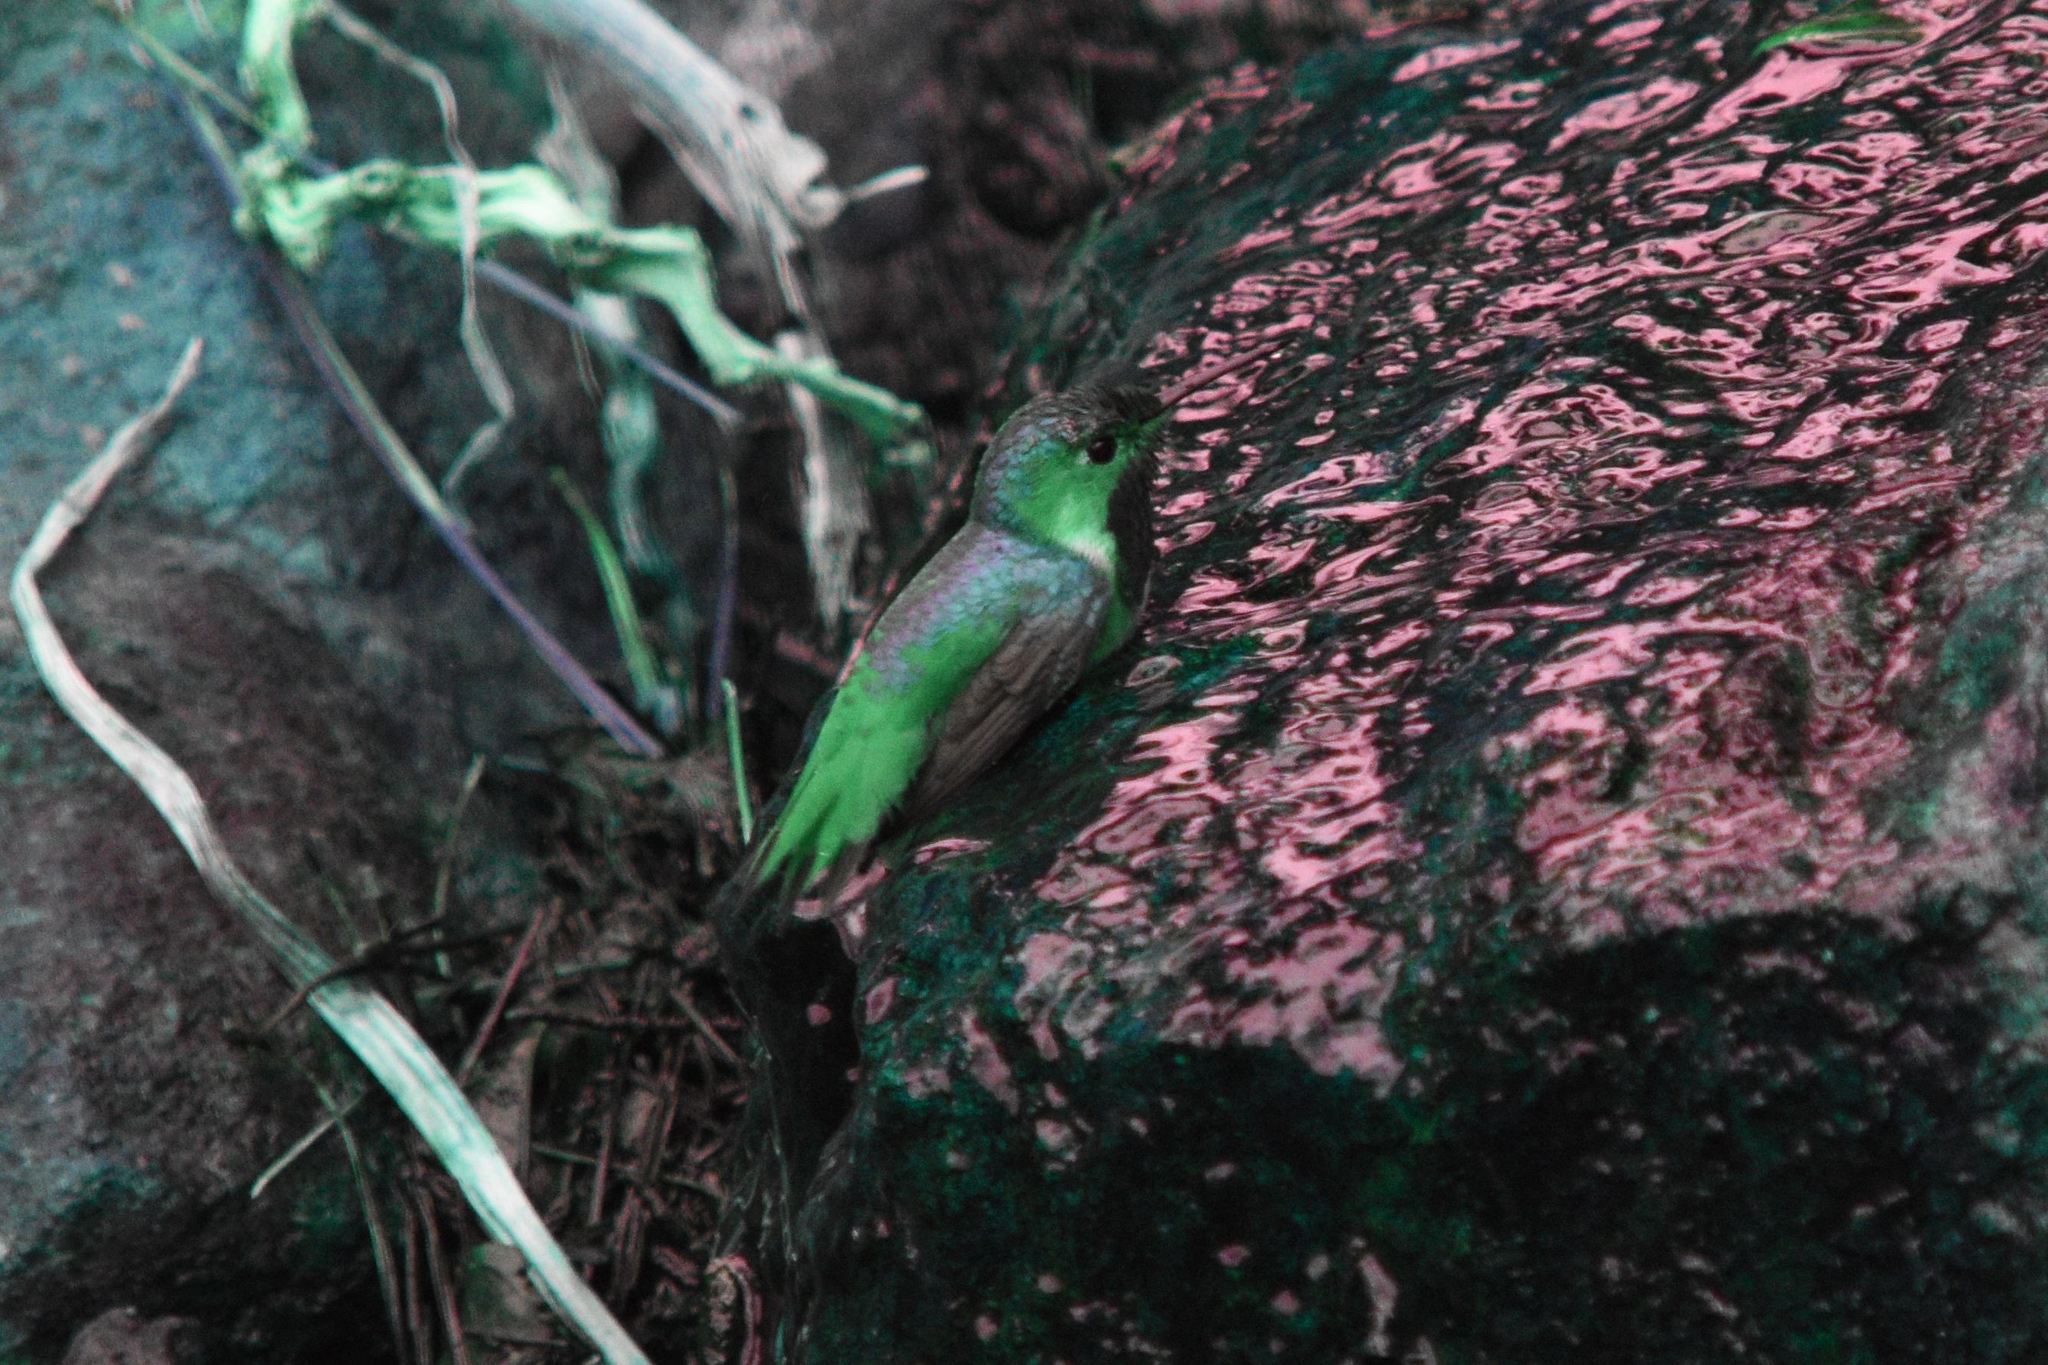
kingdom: Animalia
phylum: Chordata
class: Aves
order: Apodiformes
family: Trochilidae
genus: Selasphorus
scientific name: Selasphorus sasin
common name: Allen's hummingbird
